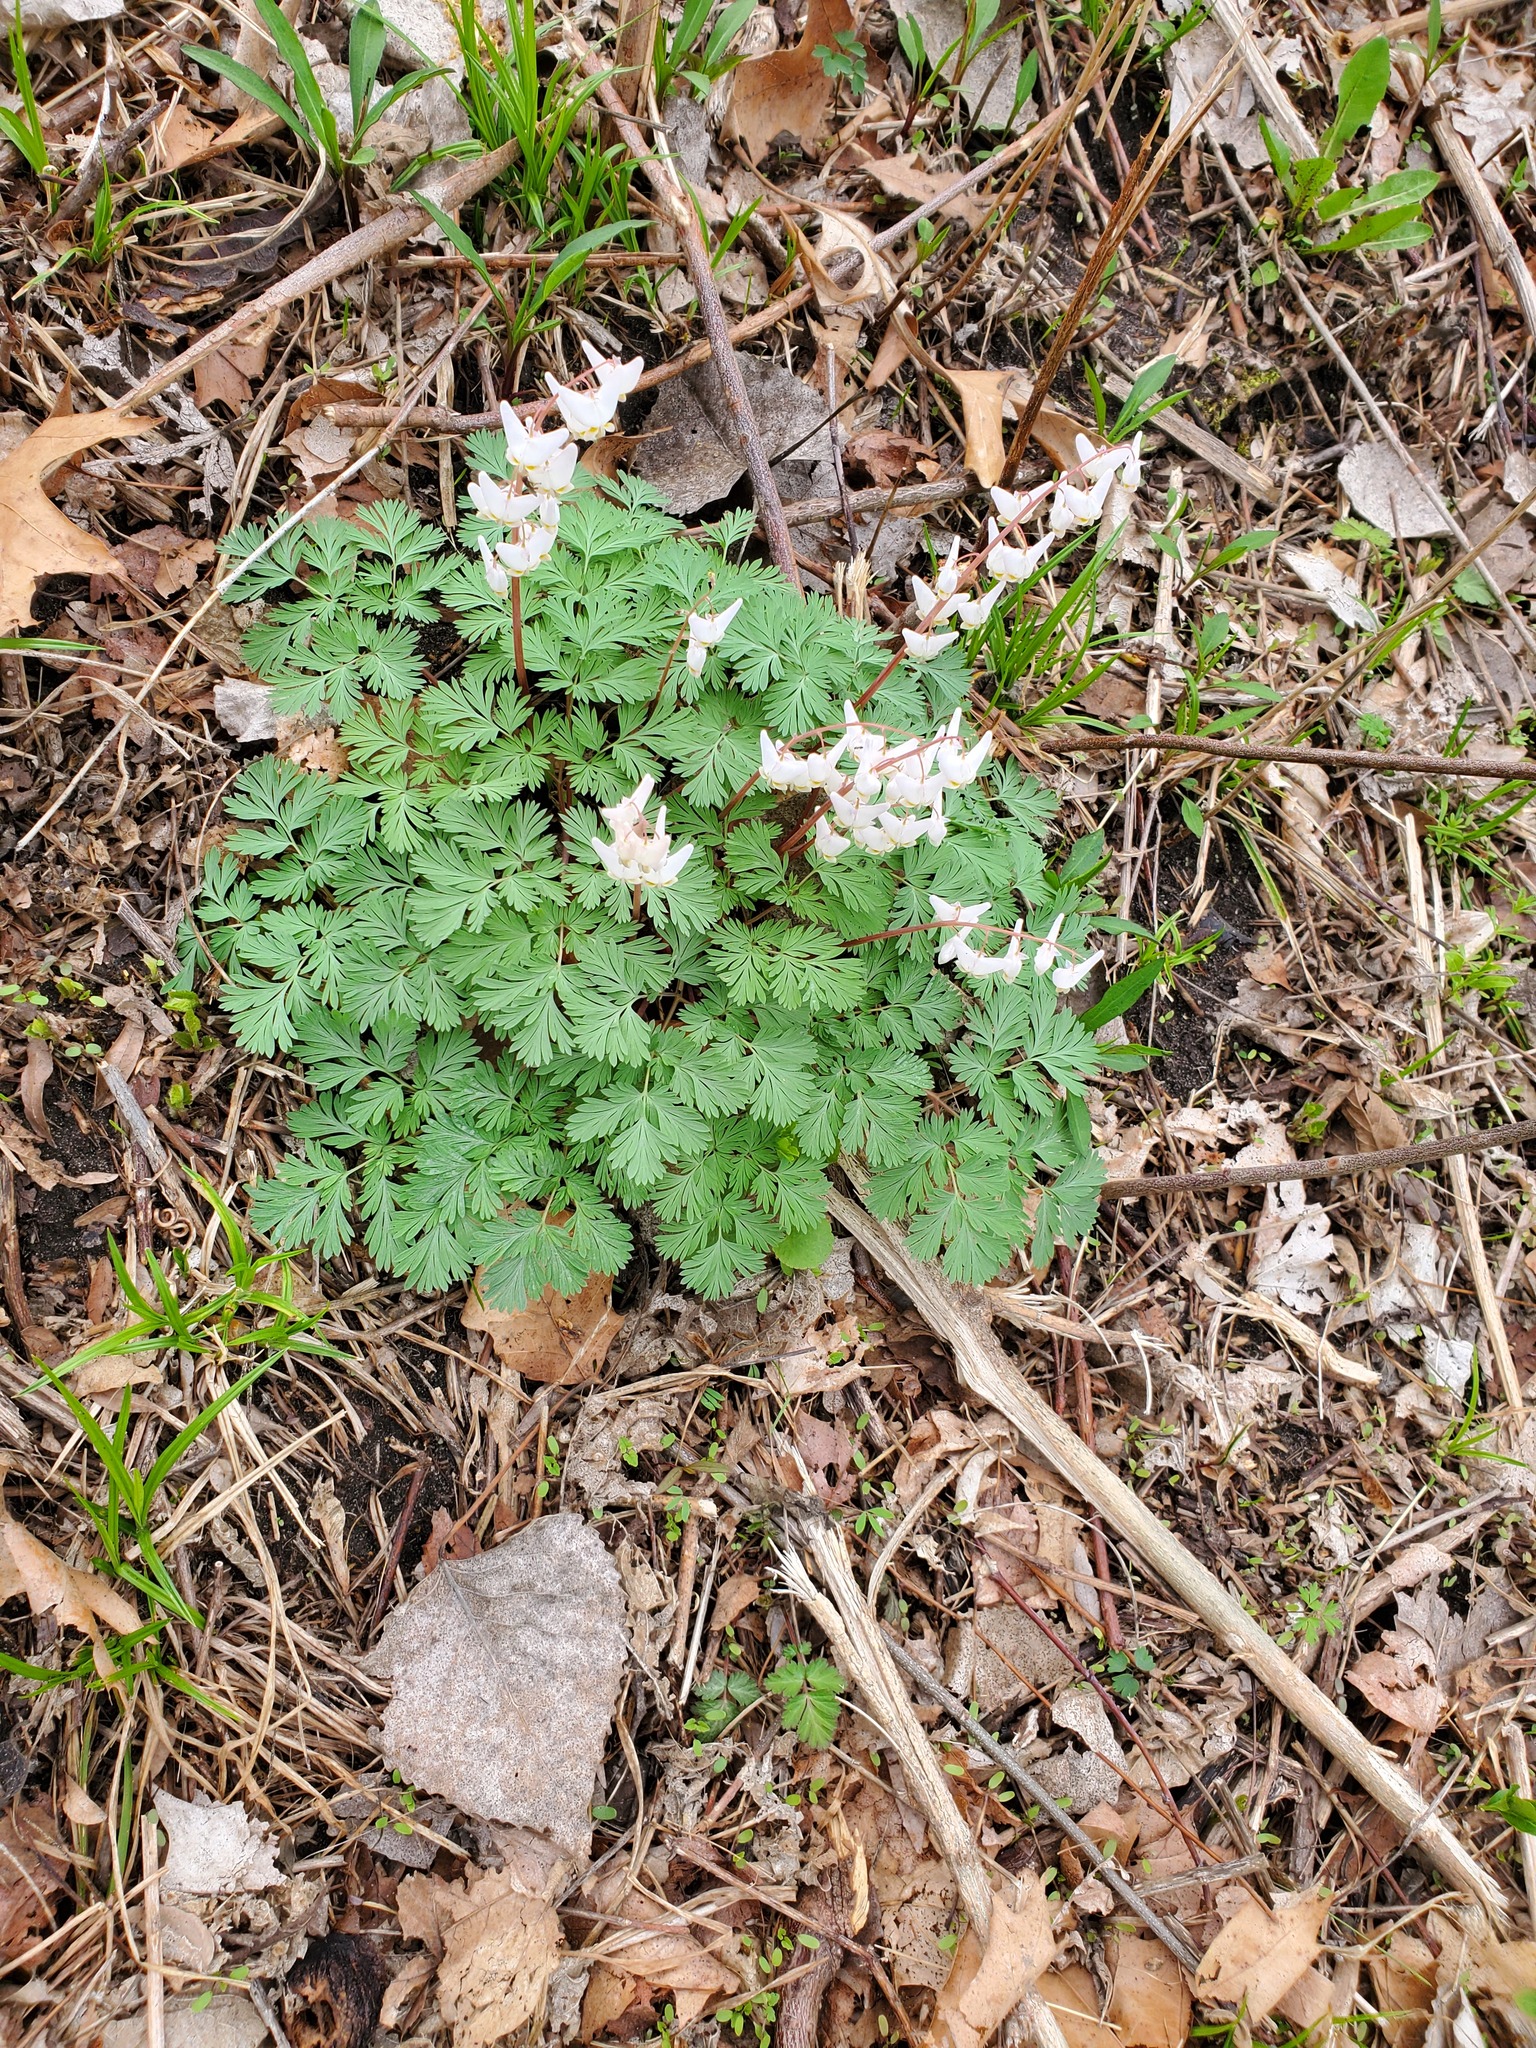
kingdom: Plantae
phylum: Tracheophyta
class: Magnoliopsida
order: Ranunculales
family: Papaveraceae
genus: Dicentra
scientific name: Dicentra cucullaria
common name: Dutchman's breeches
